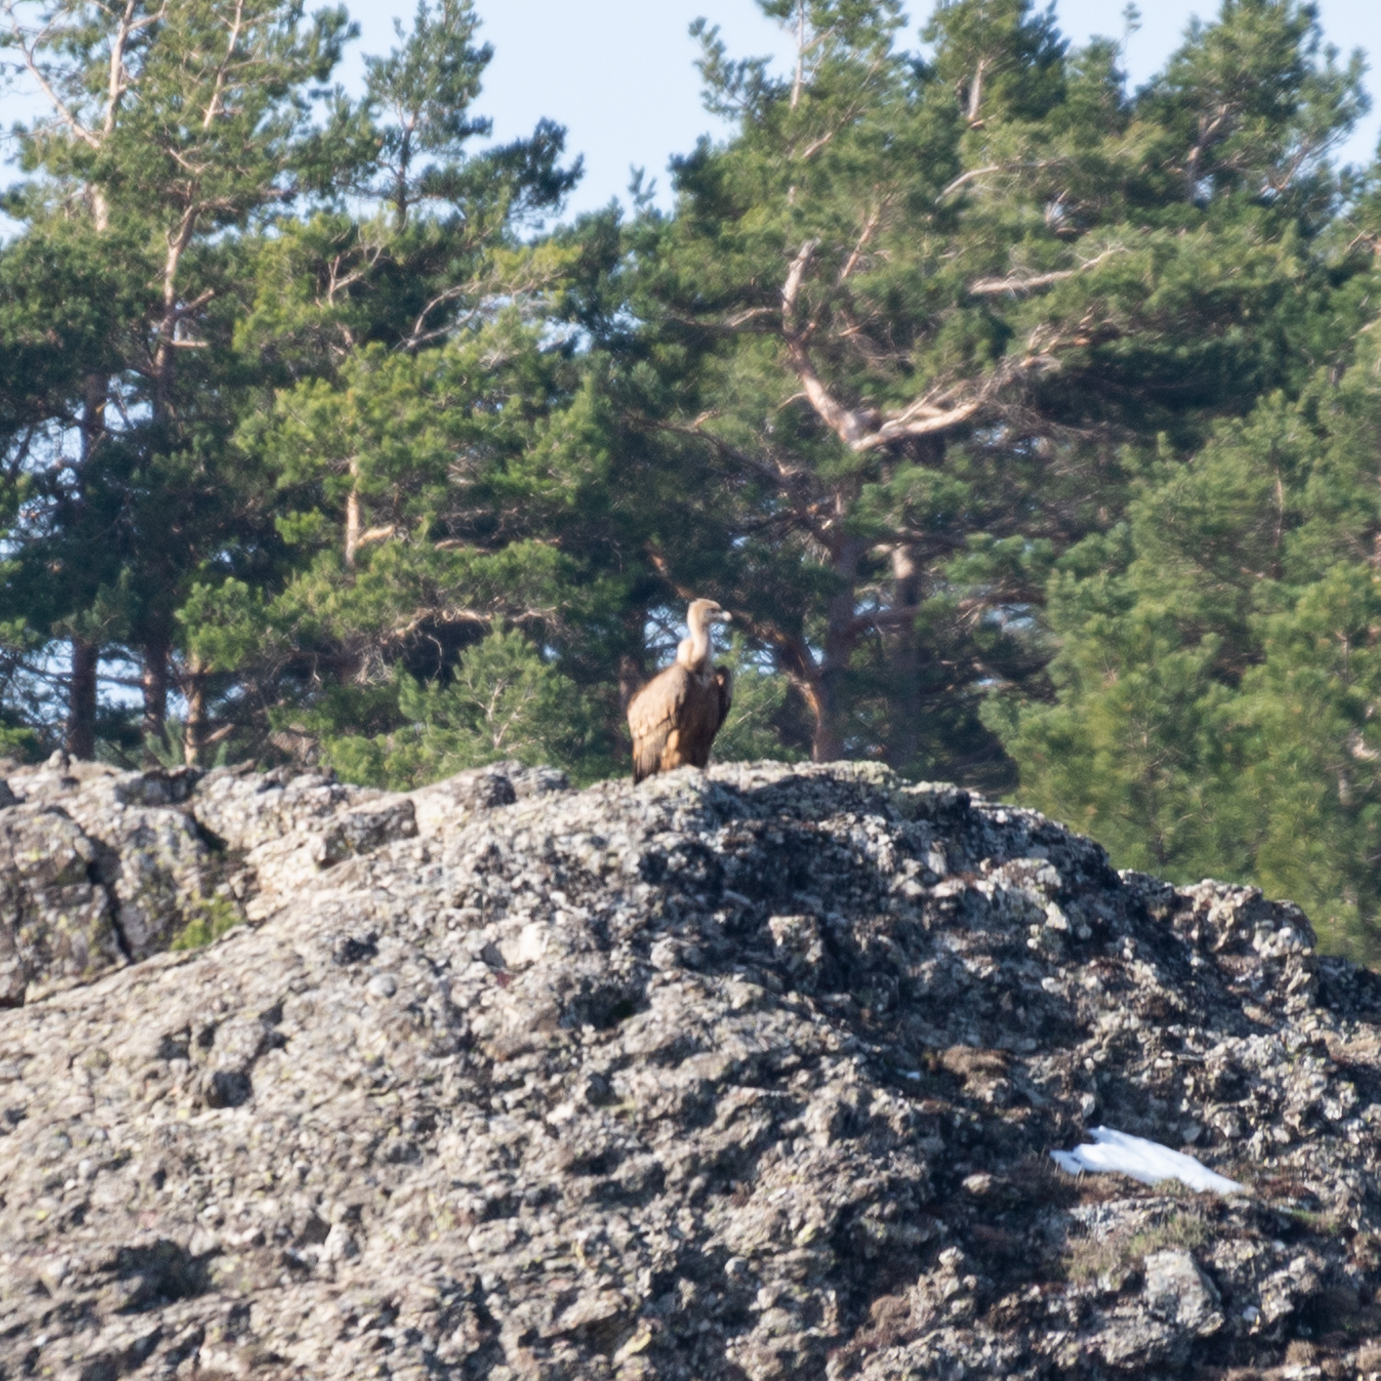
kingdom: Animalia
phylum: Chordata
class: Aves
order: Accipitriformes
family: Accipitridae
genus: Gyps
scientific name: Gyps fulvus
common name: Griffon vulture
